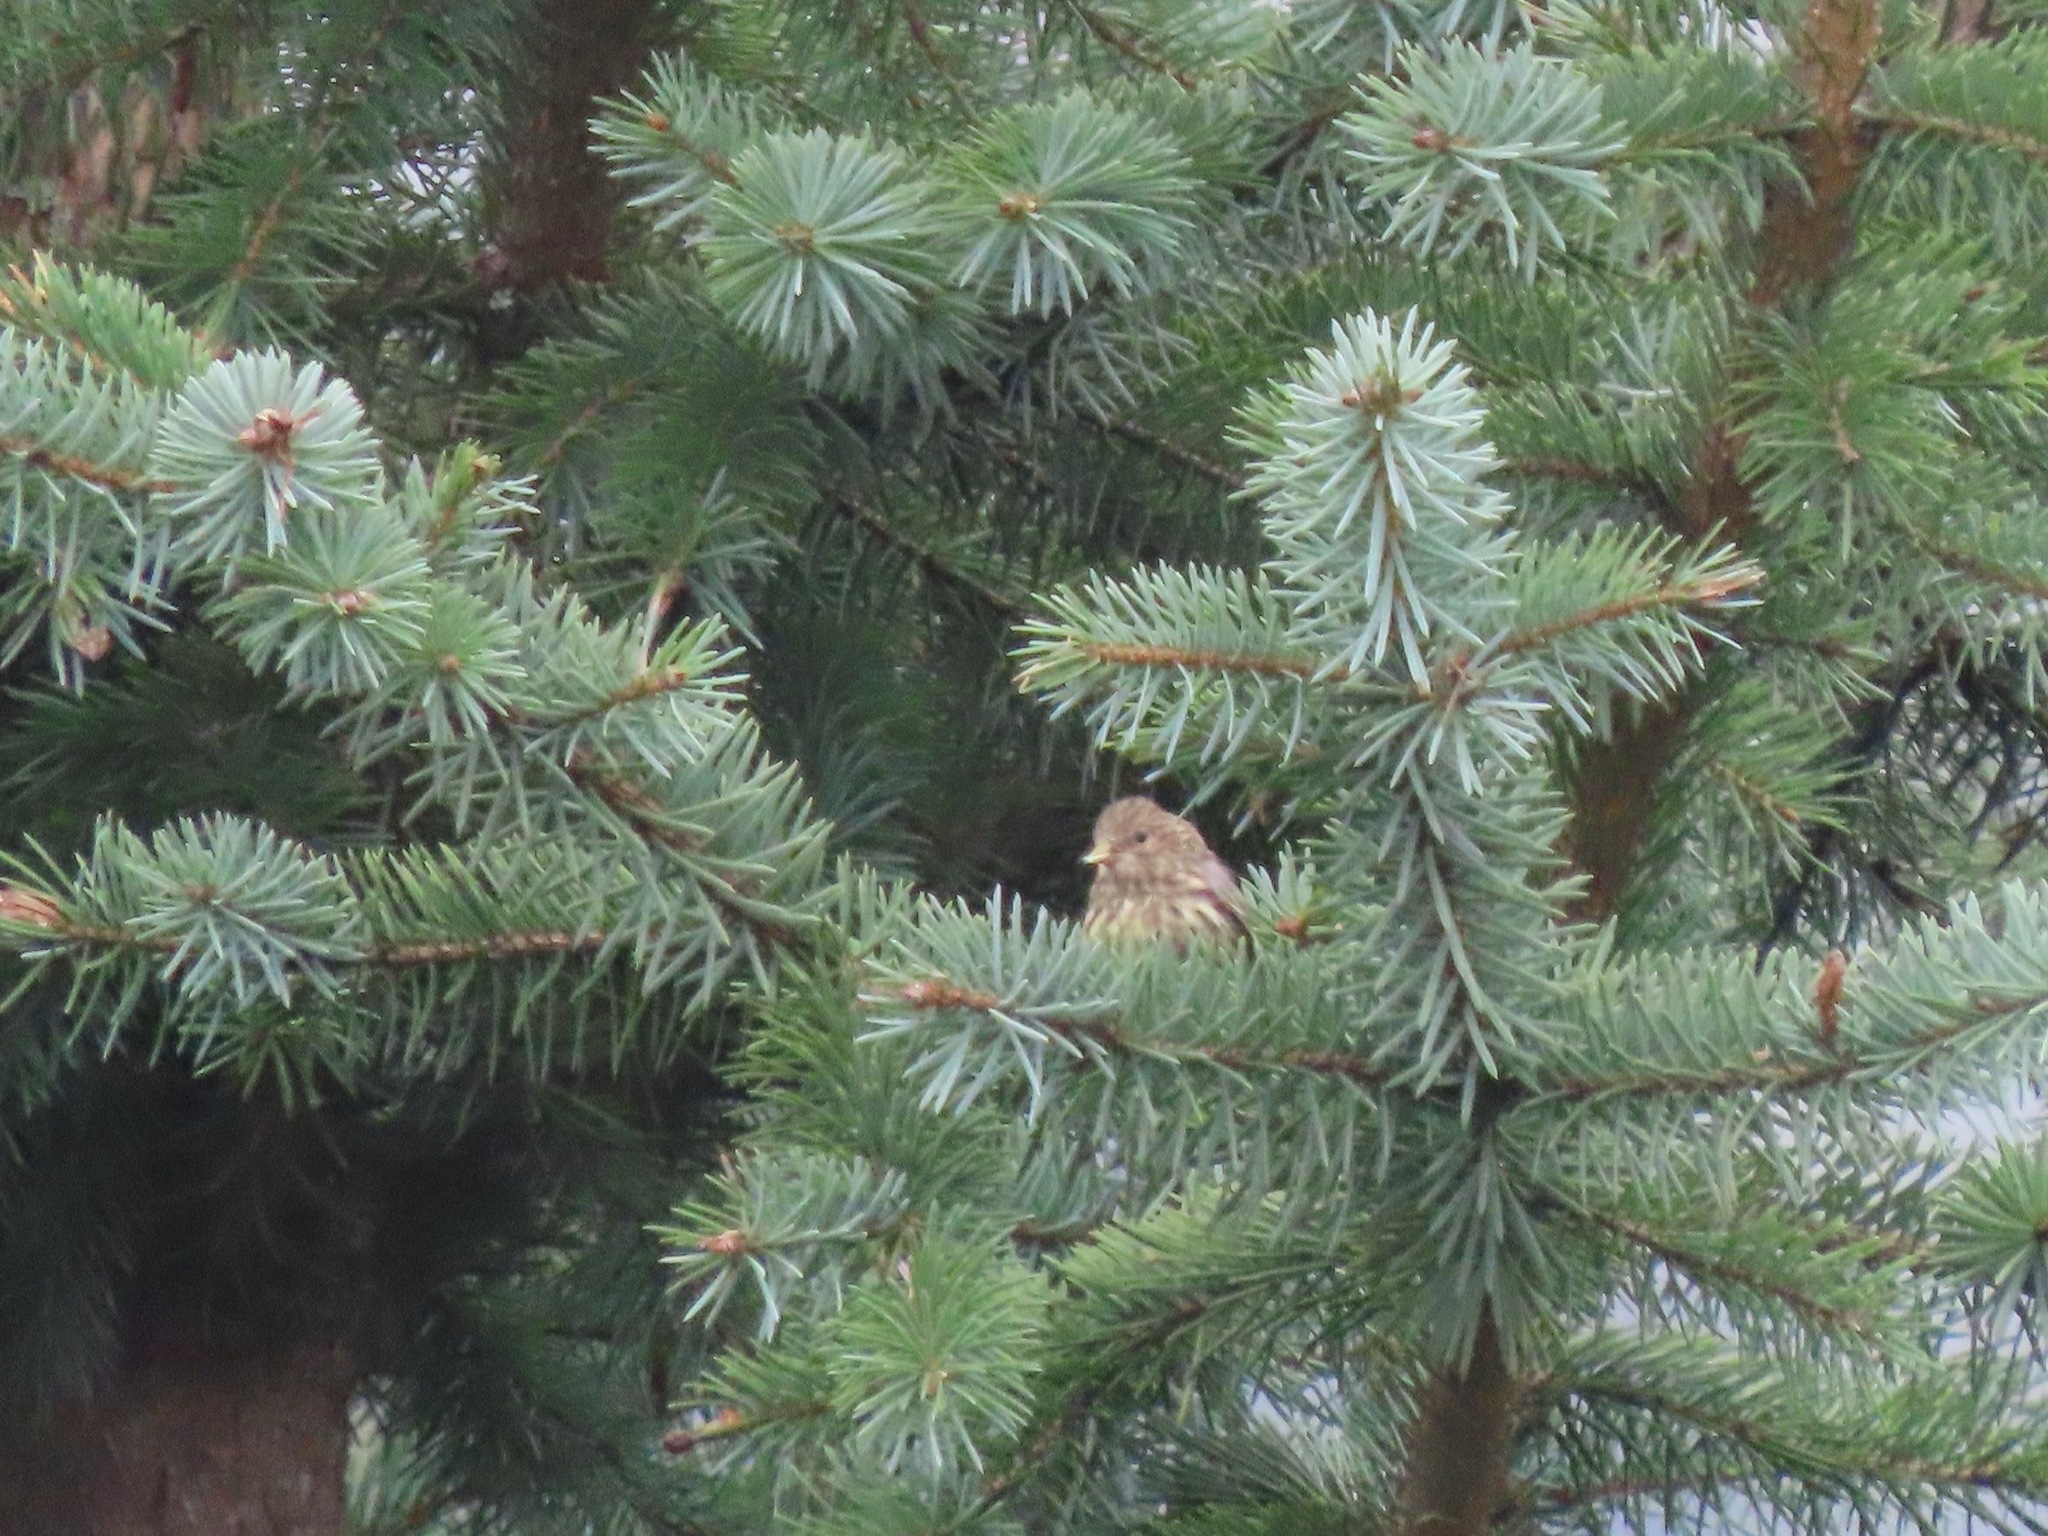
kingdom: Animalia
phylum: Chordata
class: Aves
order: Passeriformes
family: Fringillidae
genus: Spinus
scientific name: Spinus pinus
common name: Pine siskin
